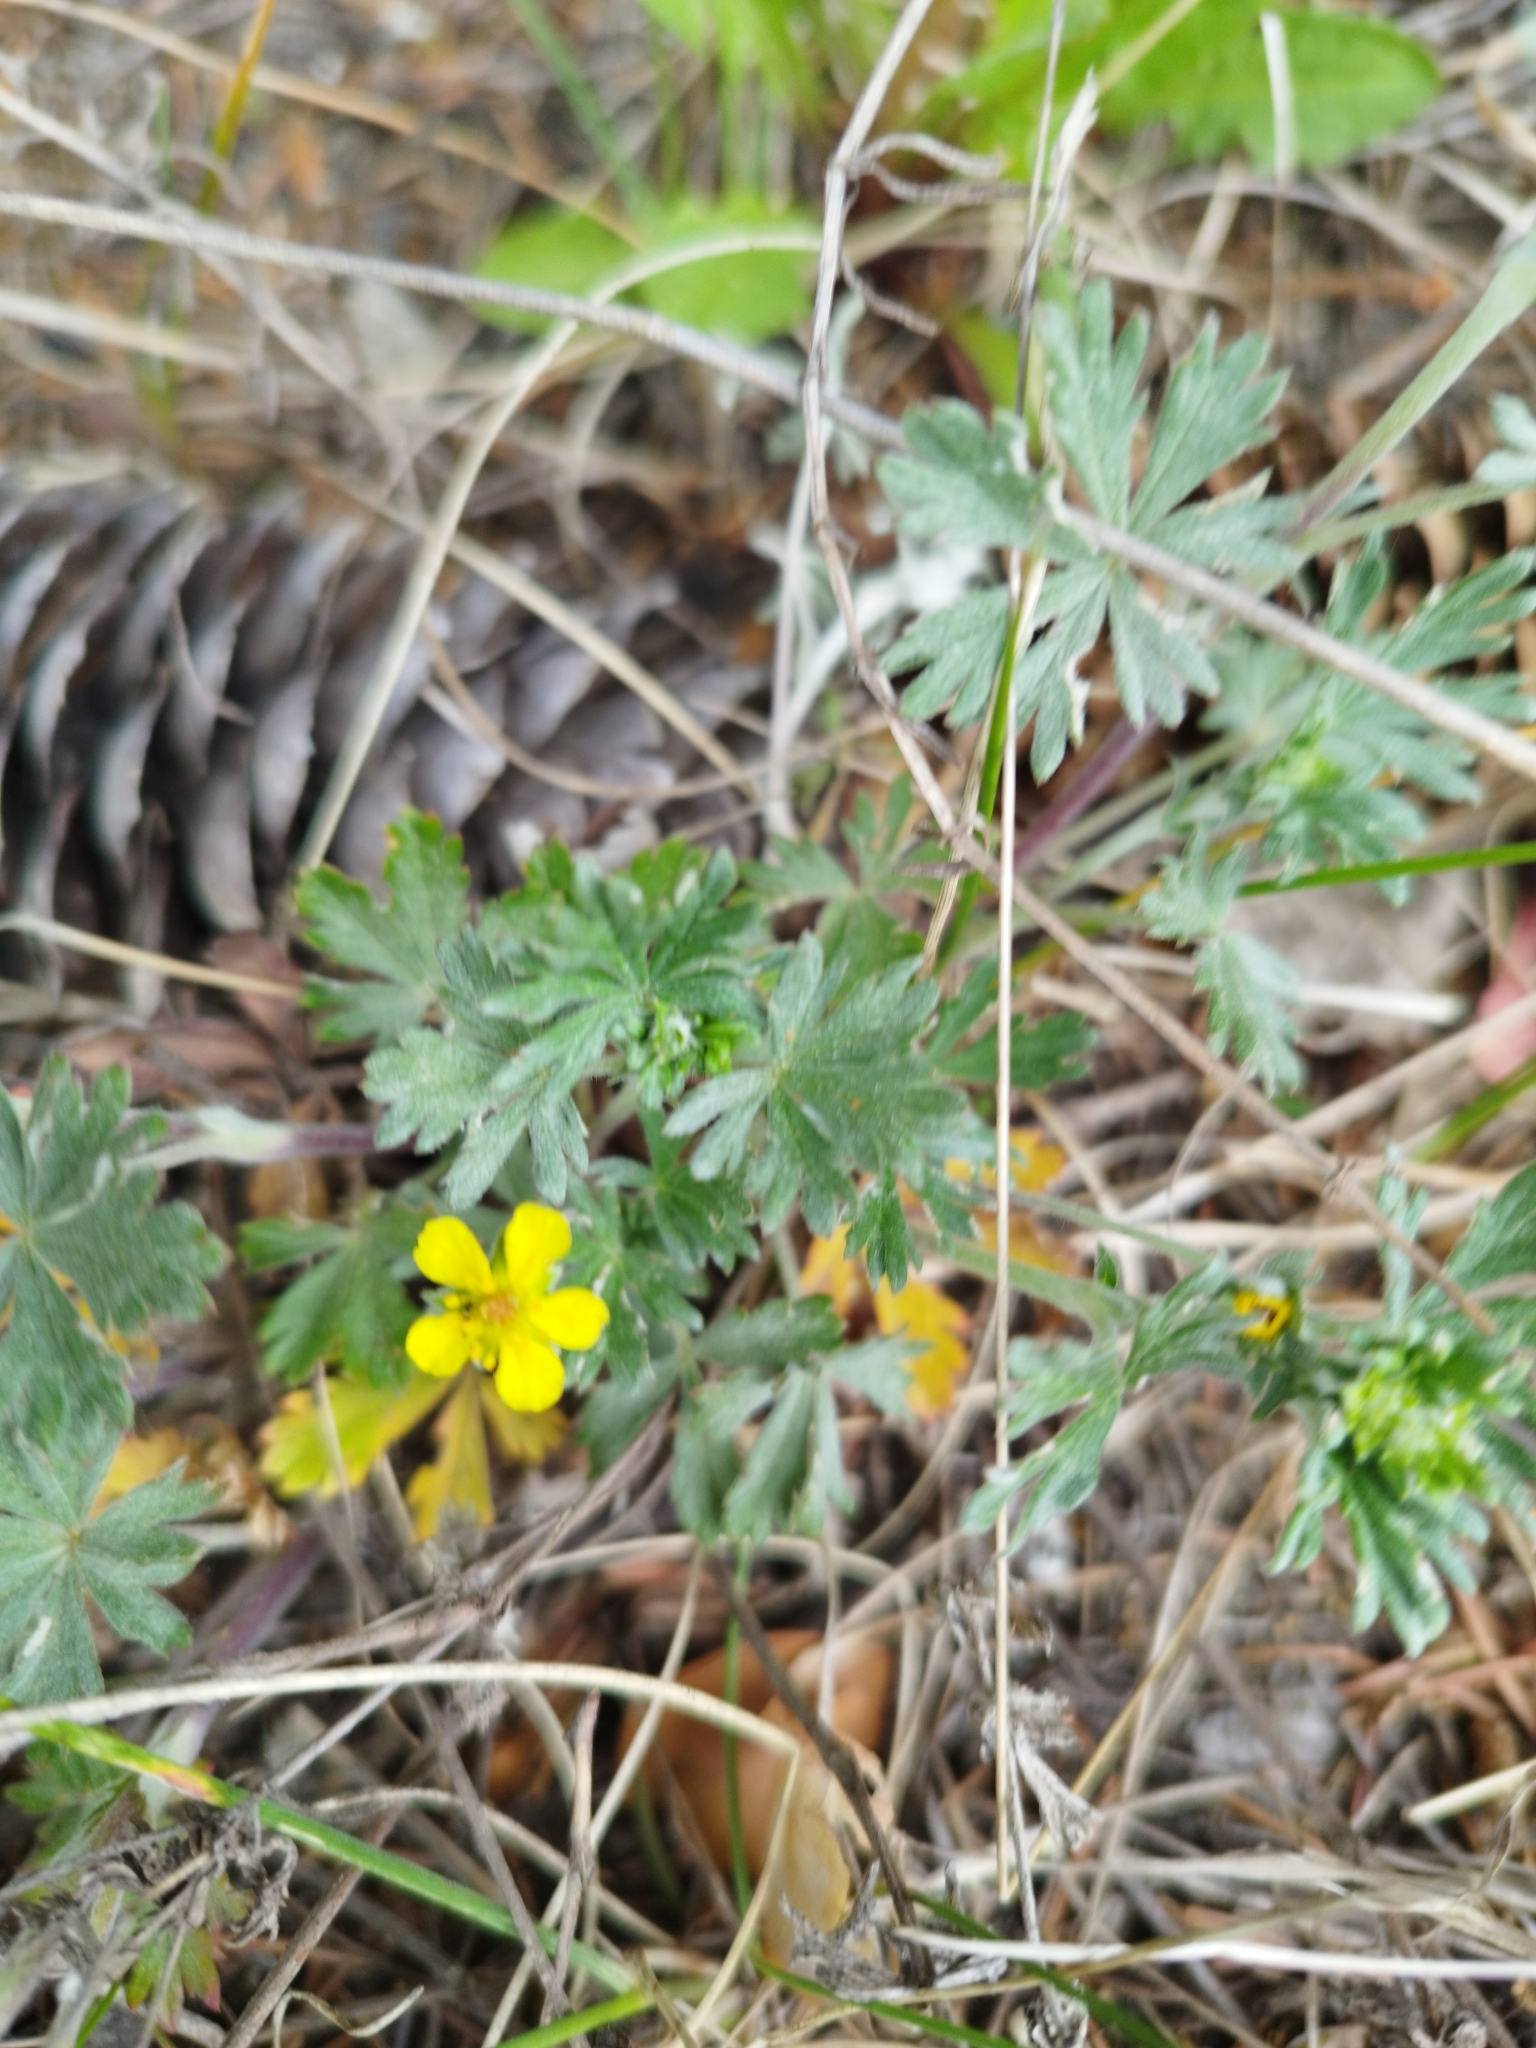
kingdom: Plantae
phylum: Tracheophyta
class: Magnoliopsida
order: Rosales
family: Rosaceae
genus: Potentilla
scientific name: Potentilla argentea
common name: Hoary cinquefoil
